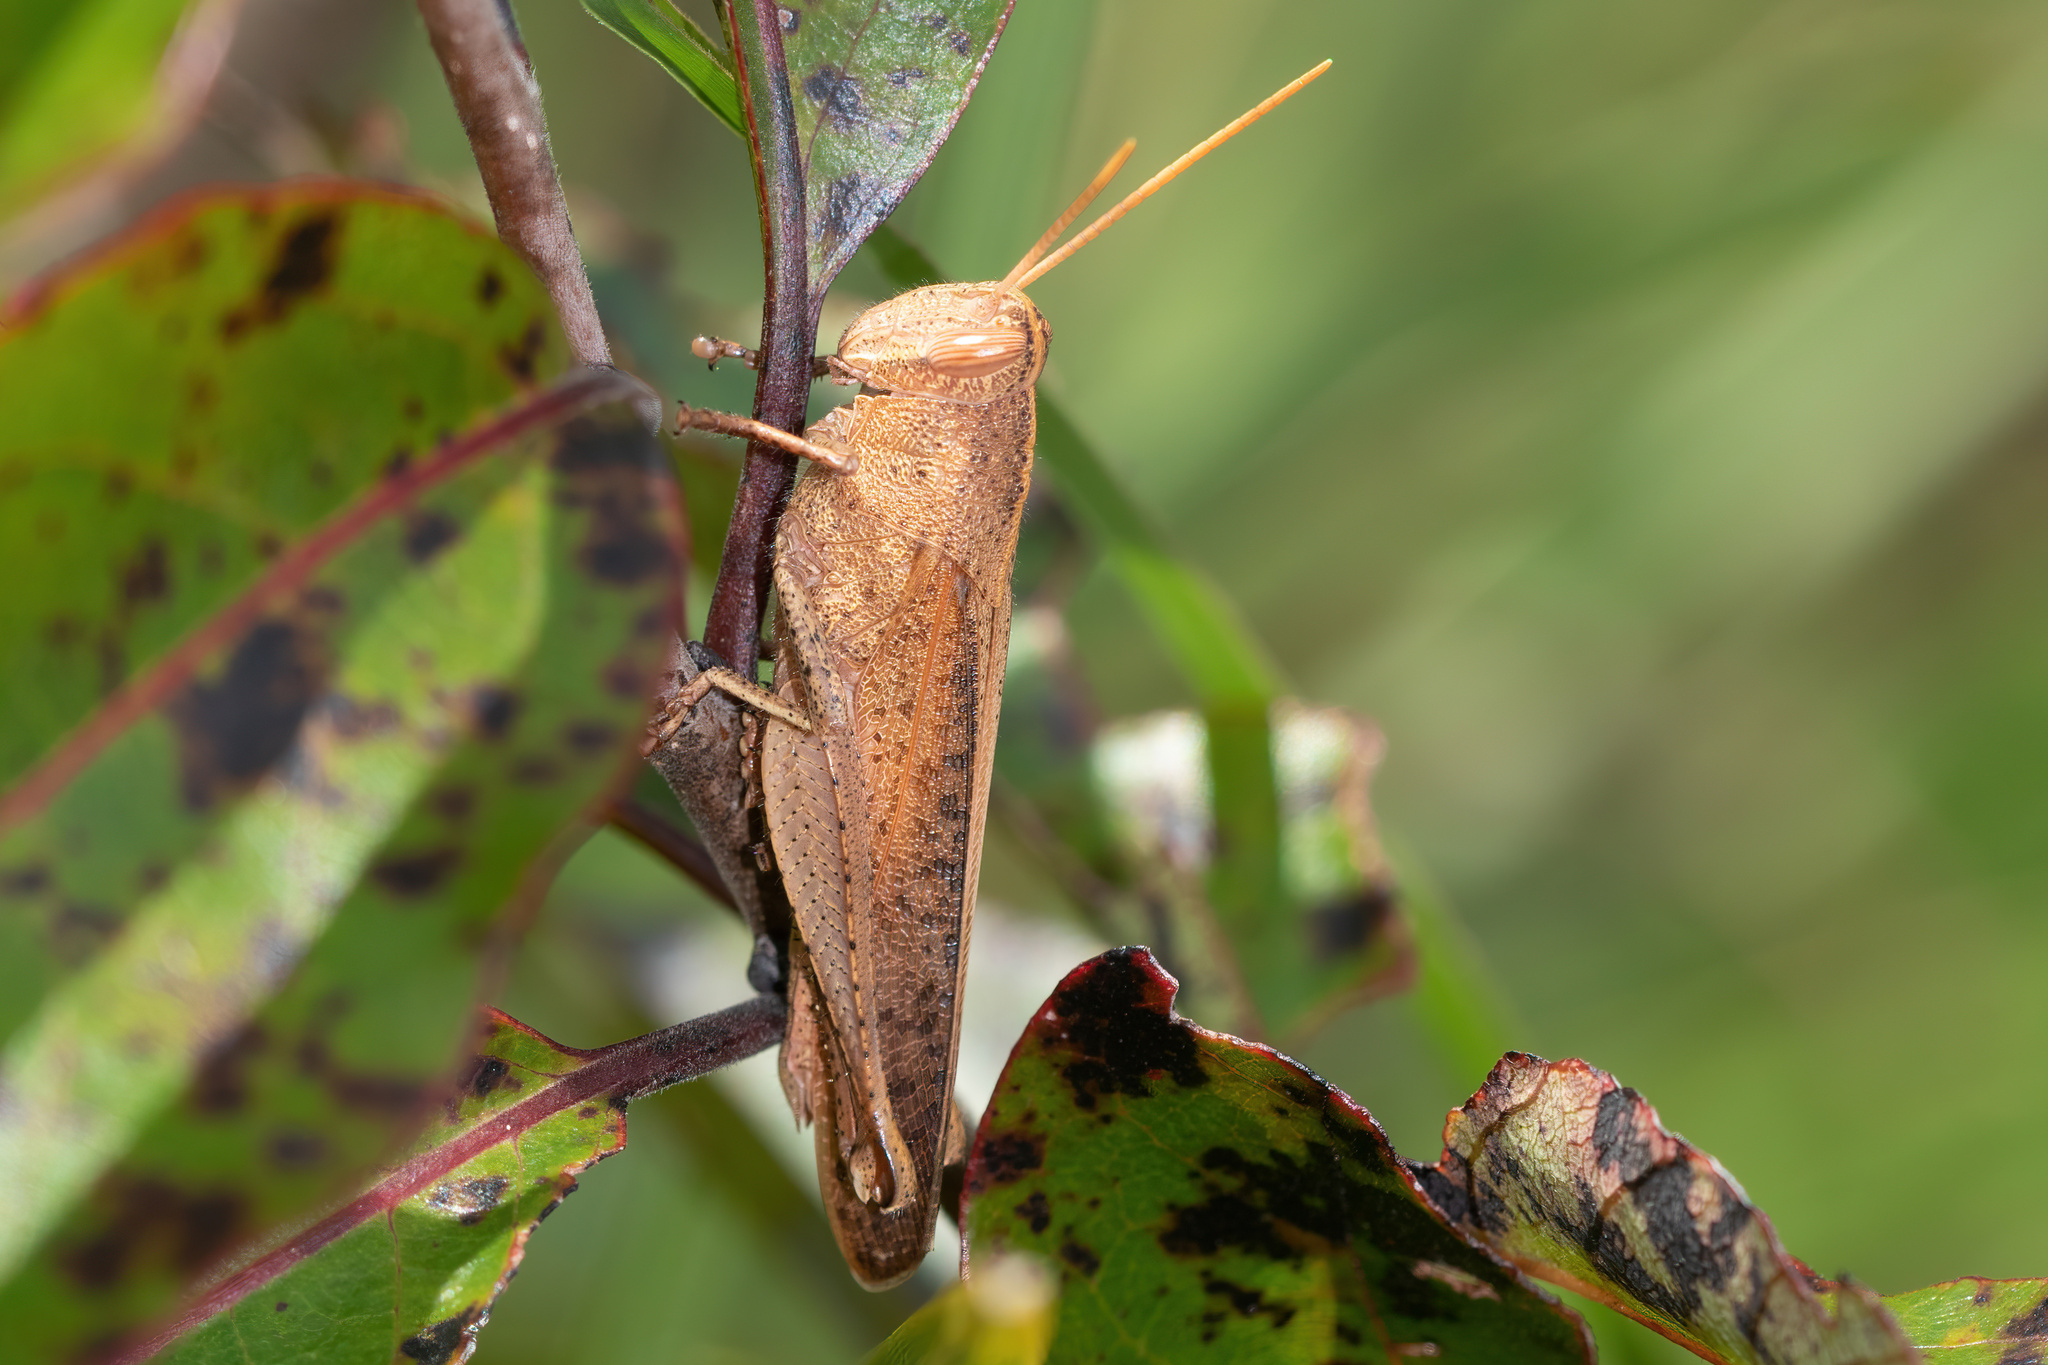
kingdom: Animalia
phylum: Arthropoda
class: Insecta
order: Orthoptera
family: Acrididae
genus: Schistocerca
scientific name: Schistocerca damnifica
